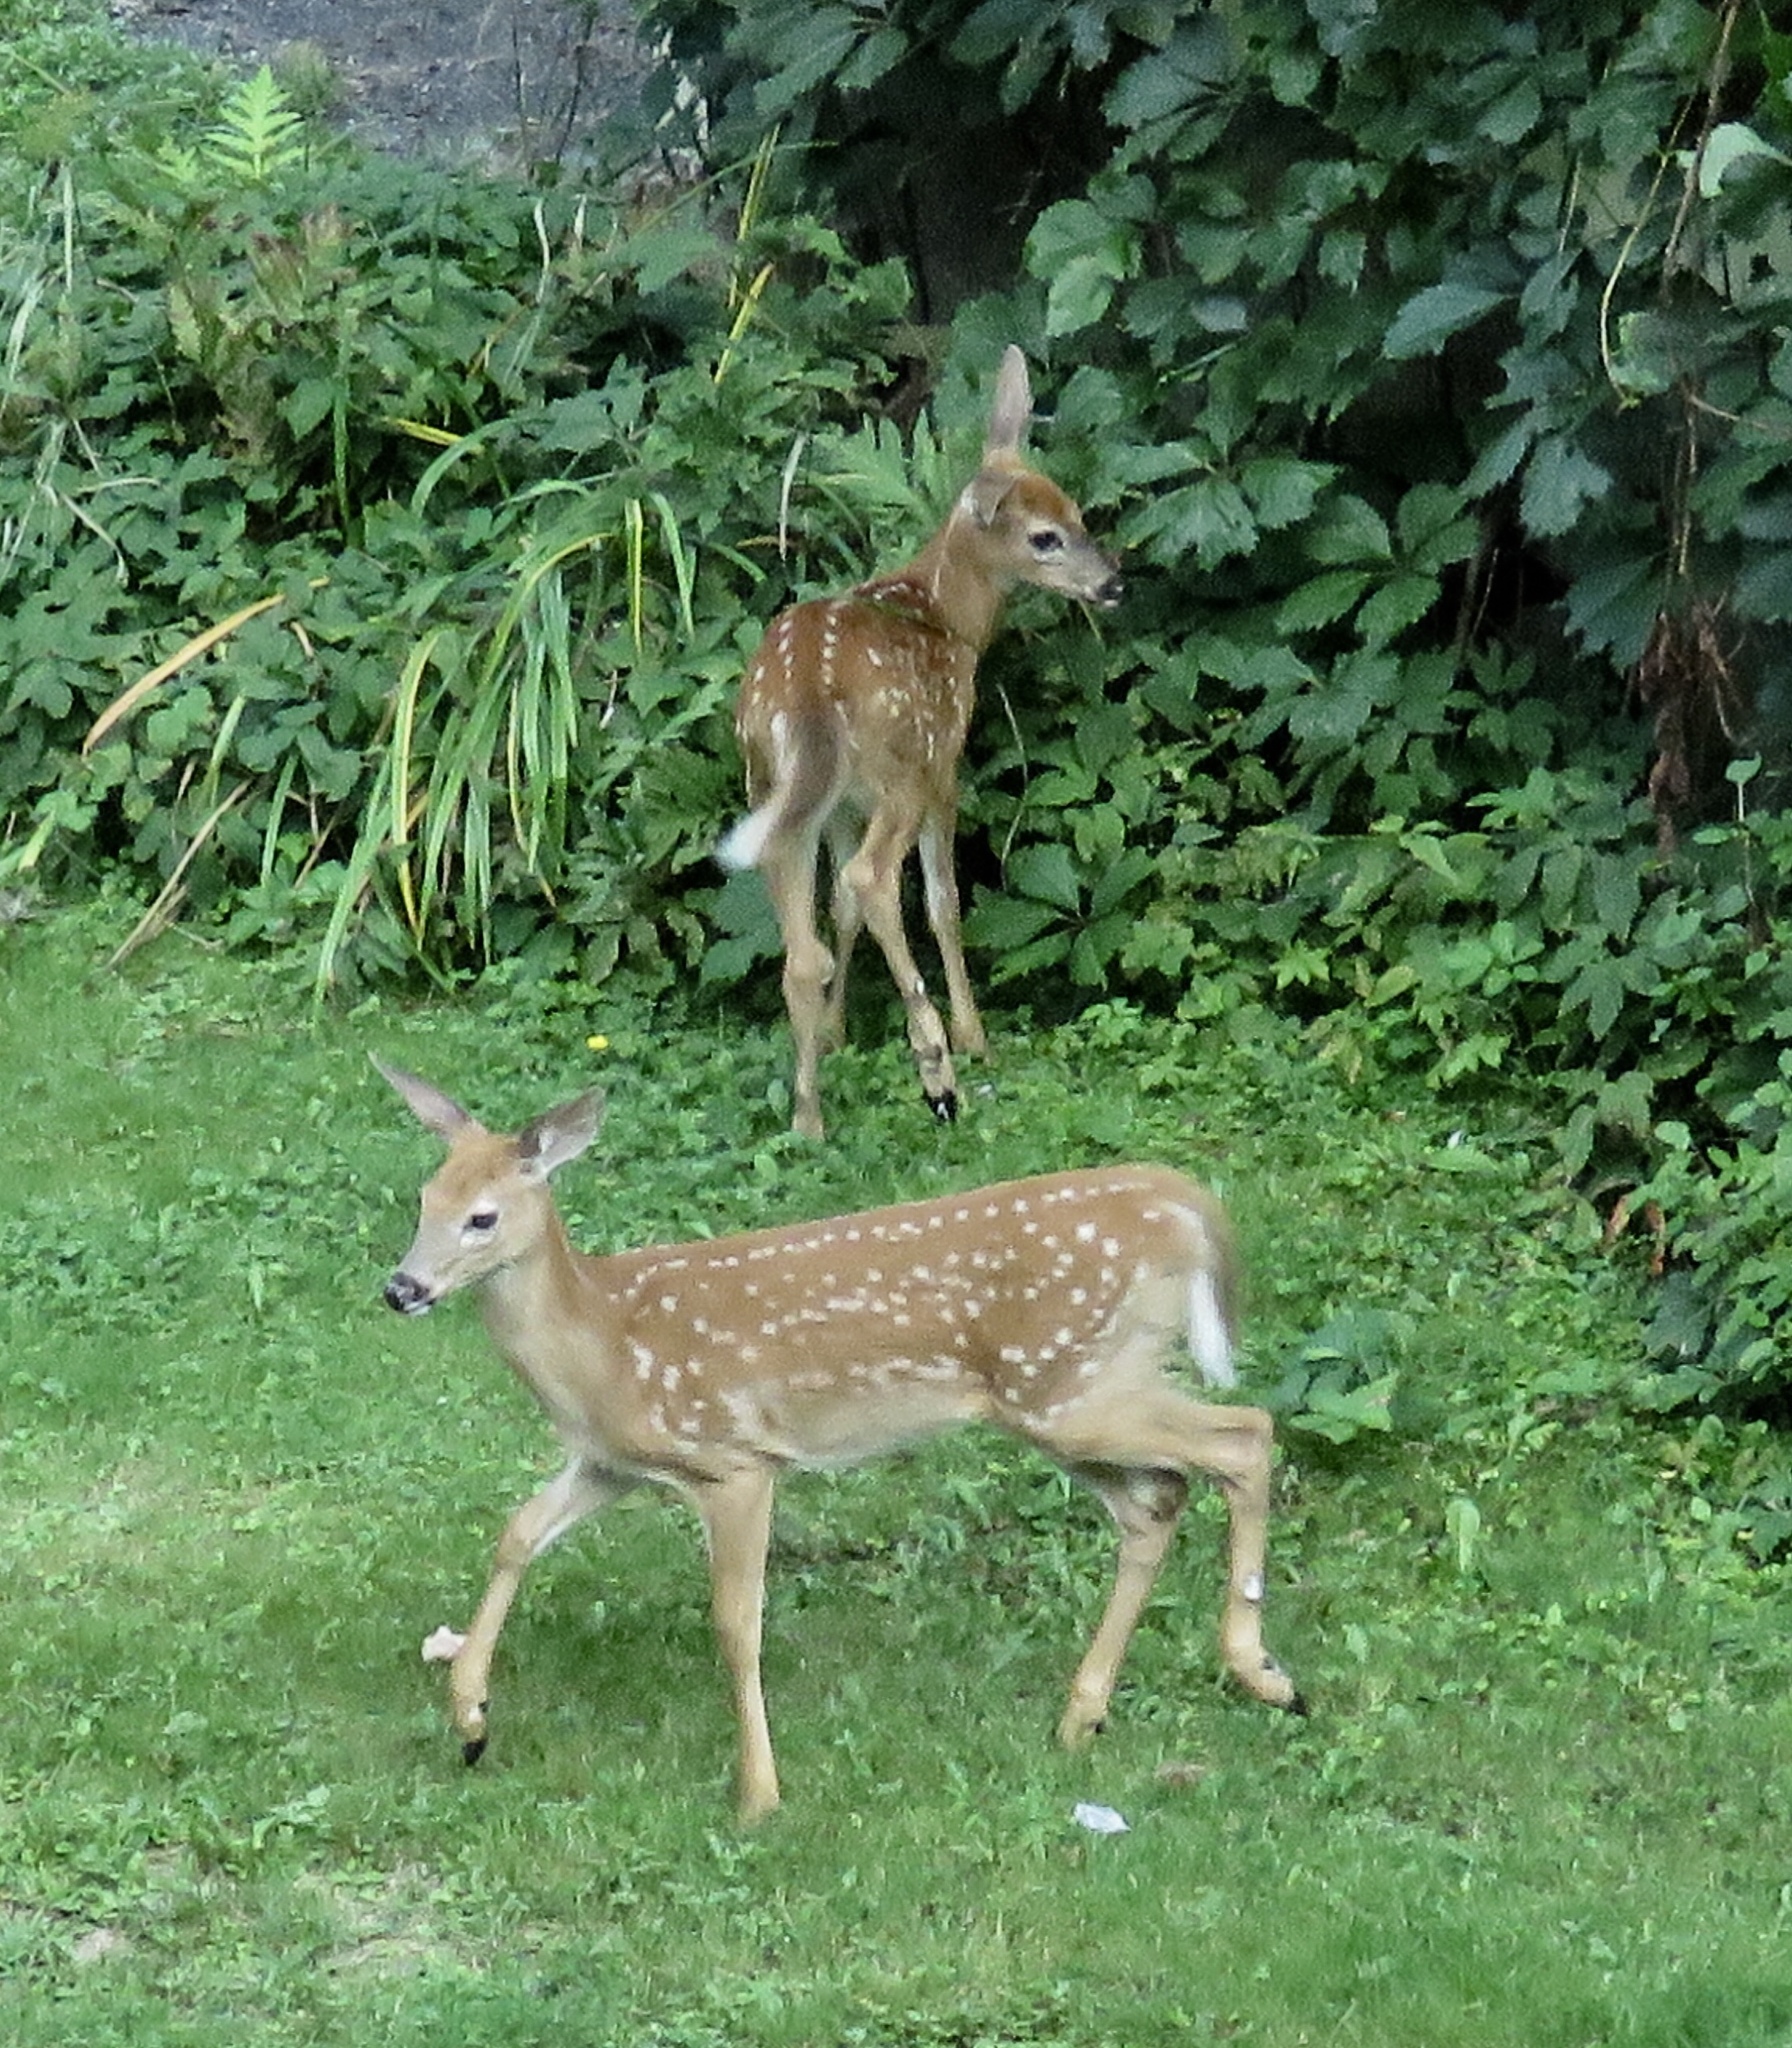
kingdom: Animalia
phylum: Chordata
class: Mammalia
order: Artiodactyla
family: Cervidae
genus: Odocoileus
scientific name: Odocoileus virginianus
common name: White-tailed deer
